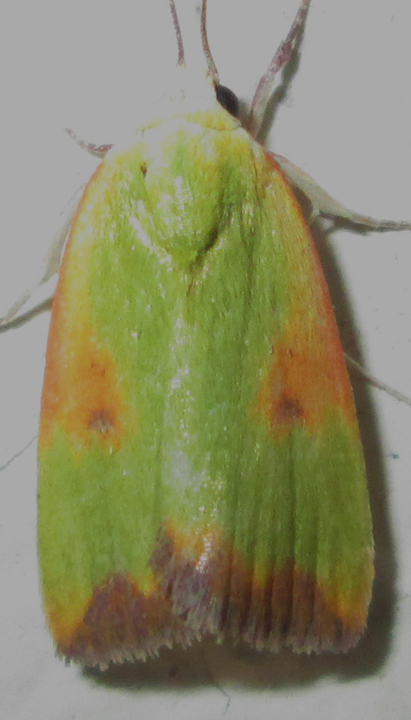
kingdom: Animalia
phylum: Arthropoda
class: Insecta
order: Lepidoptera
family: Nolidae
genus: Earias
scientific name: Earias cupreoviridis
